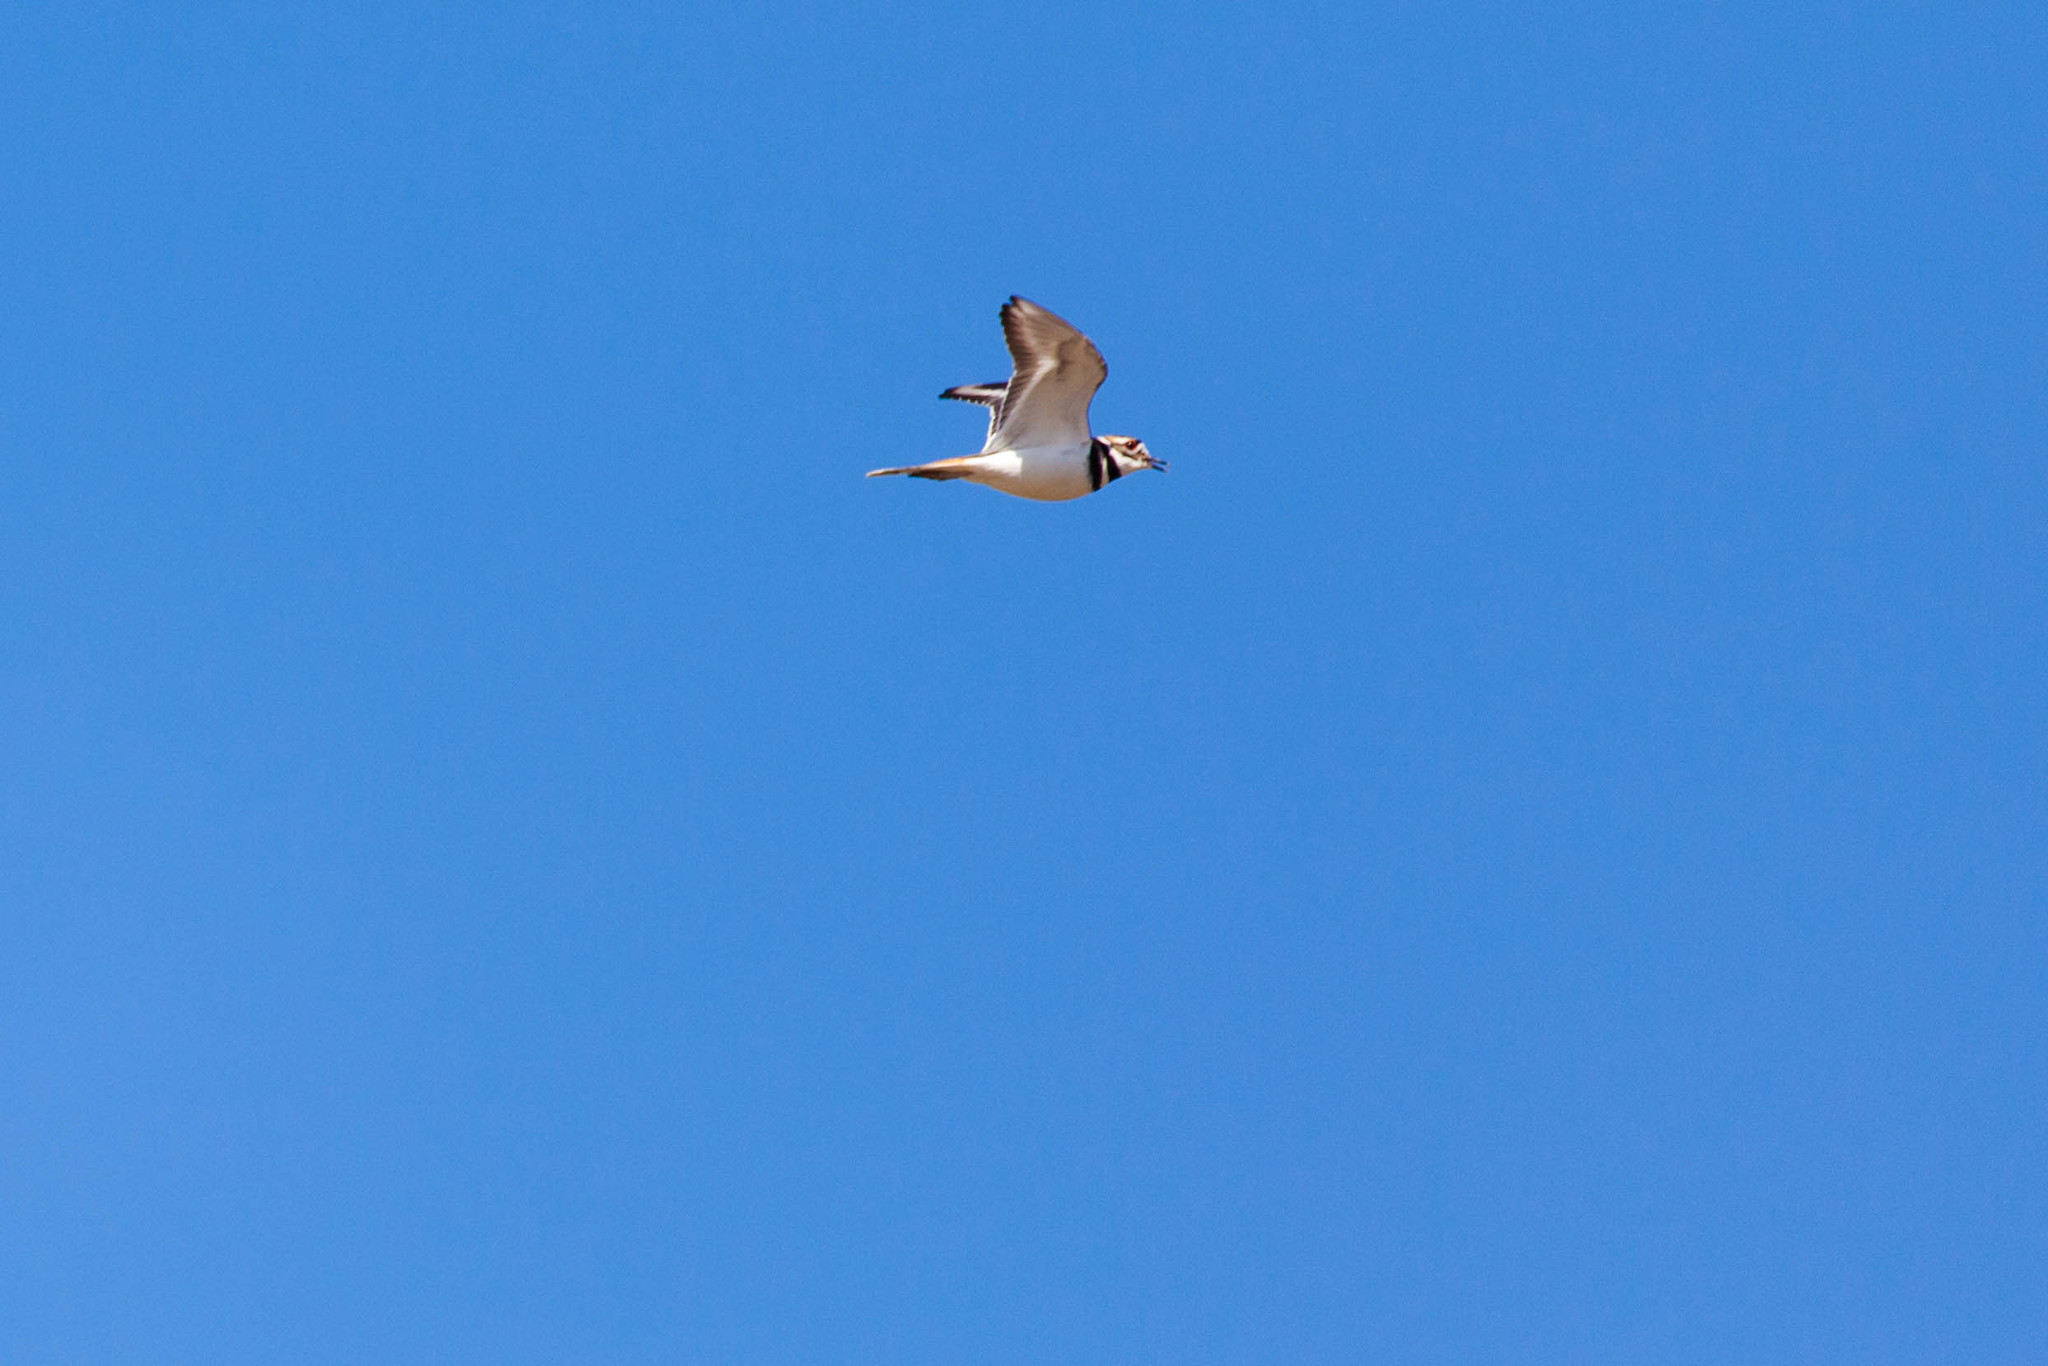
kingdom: Animalia
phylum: Chordata
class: Aves
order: Charadriiformes
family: Charadriidae
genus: Charadrius
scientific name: Charadrius vociferus
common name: Killdeer
